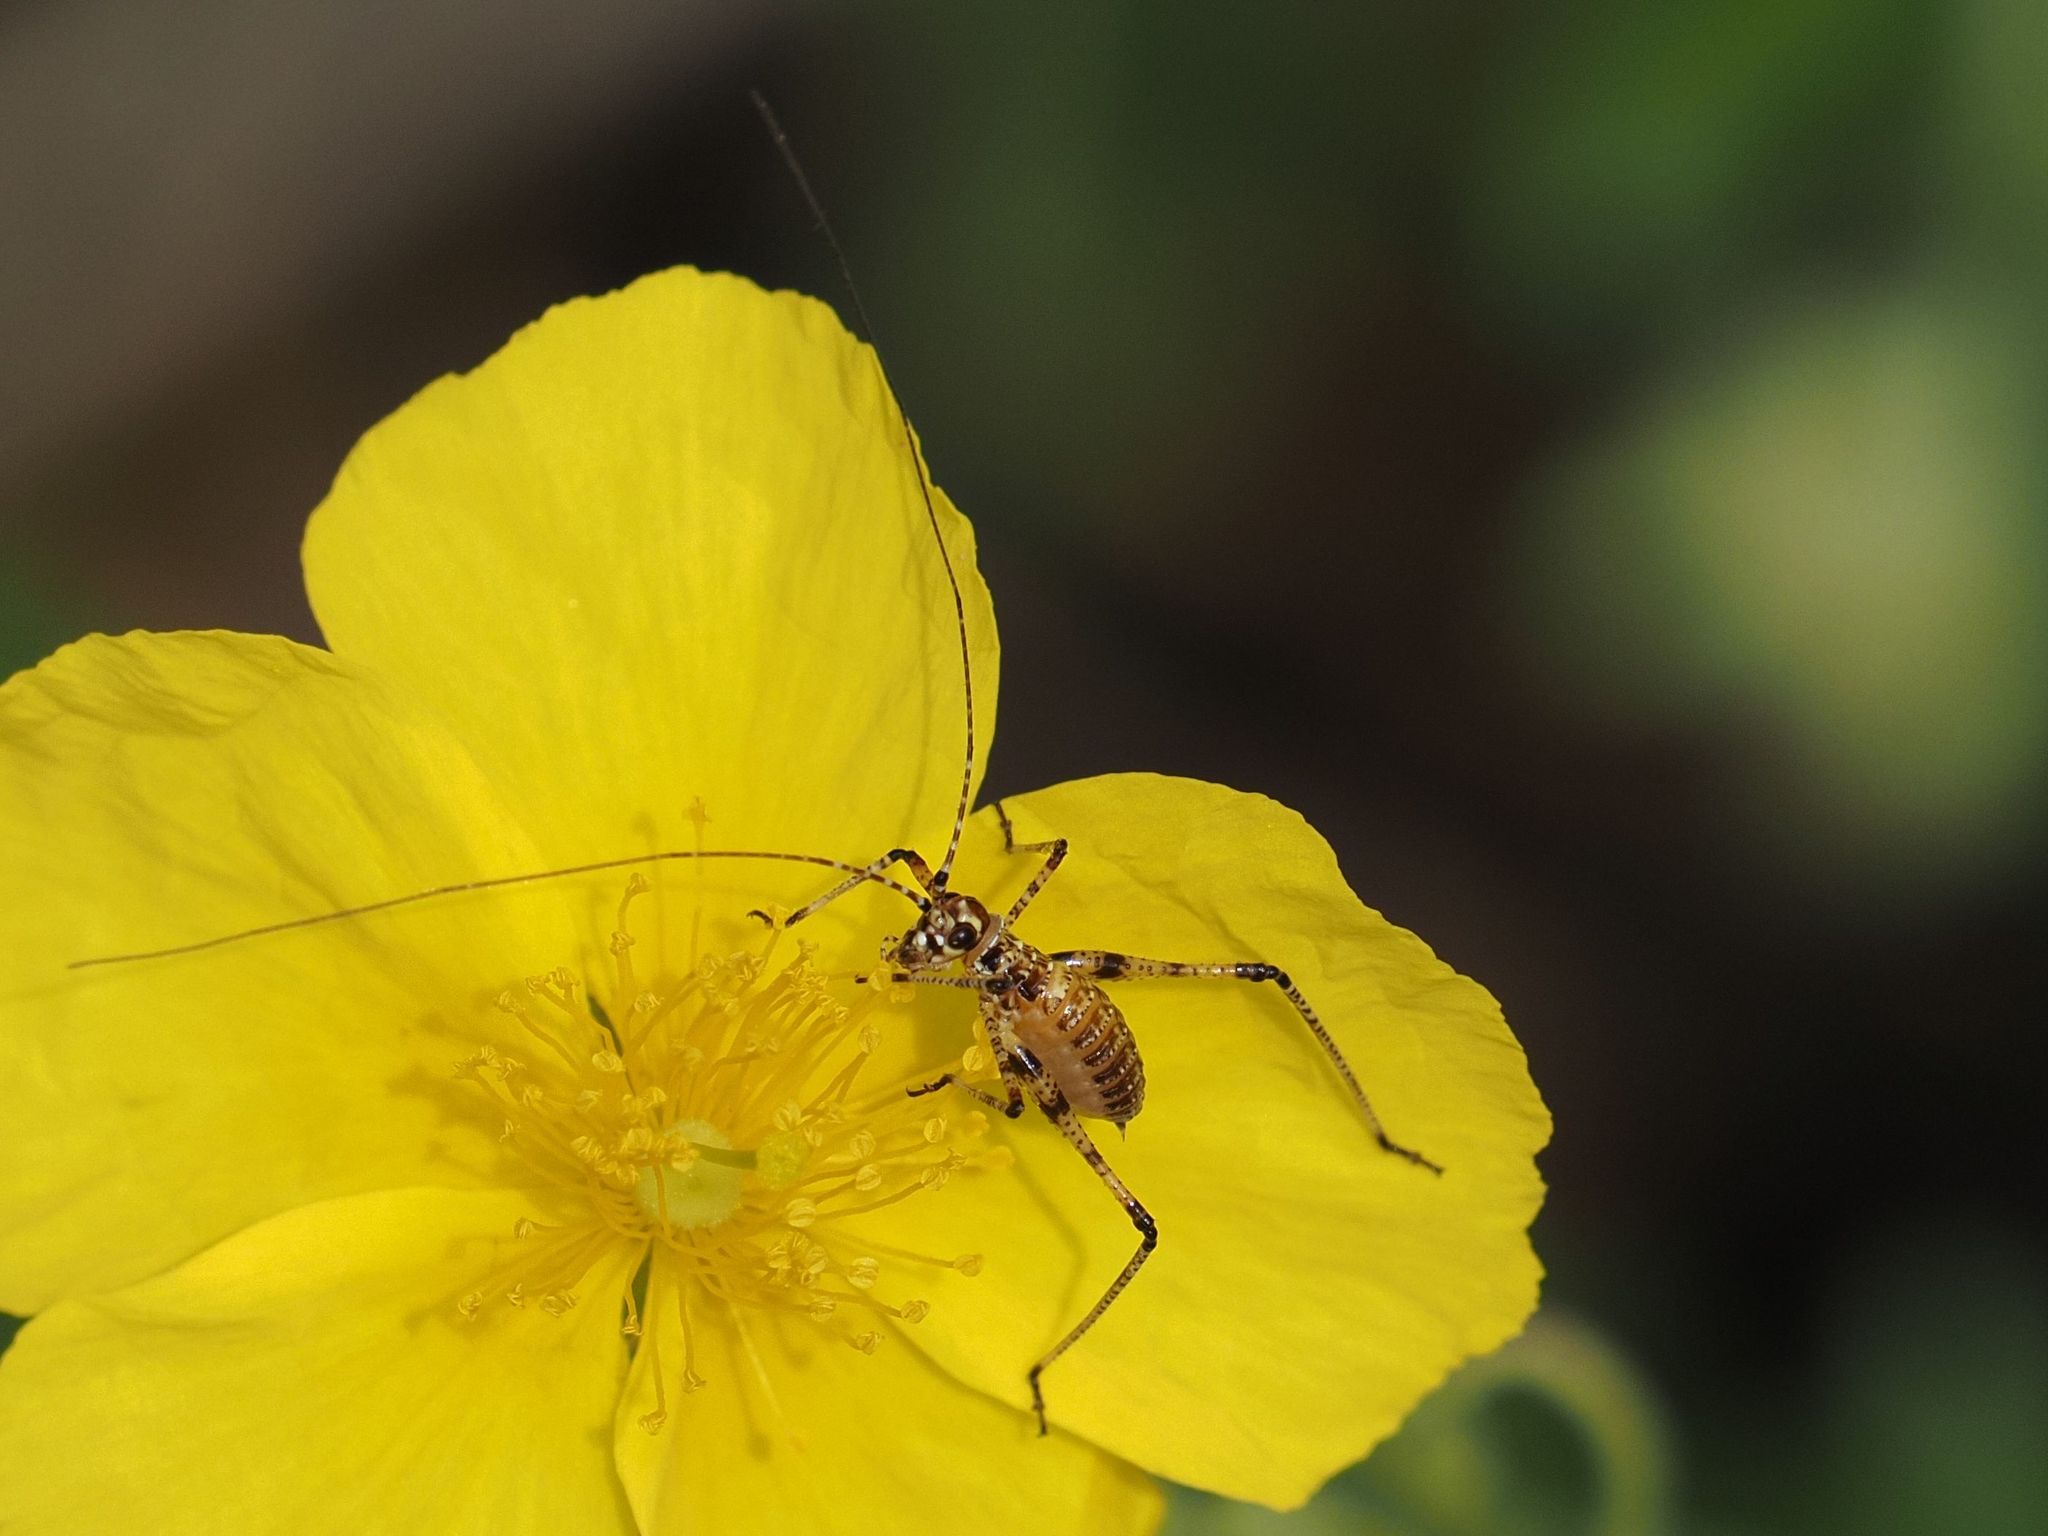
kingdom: Animalia
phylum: Arthropoda
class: Insecta
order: Orthoptera
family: Tettigoniidae
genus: Phaneroptera
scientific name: Phaneroptera nana
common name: Southern sickle bush-cricket
